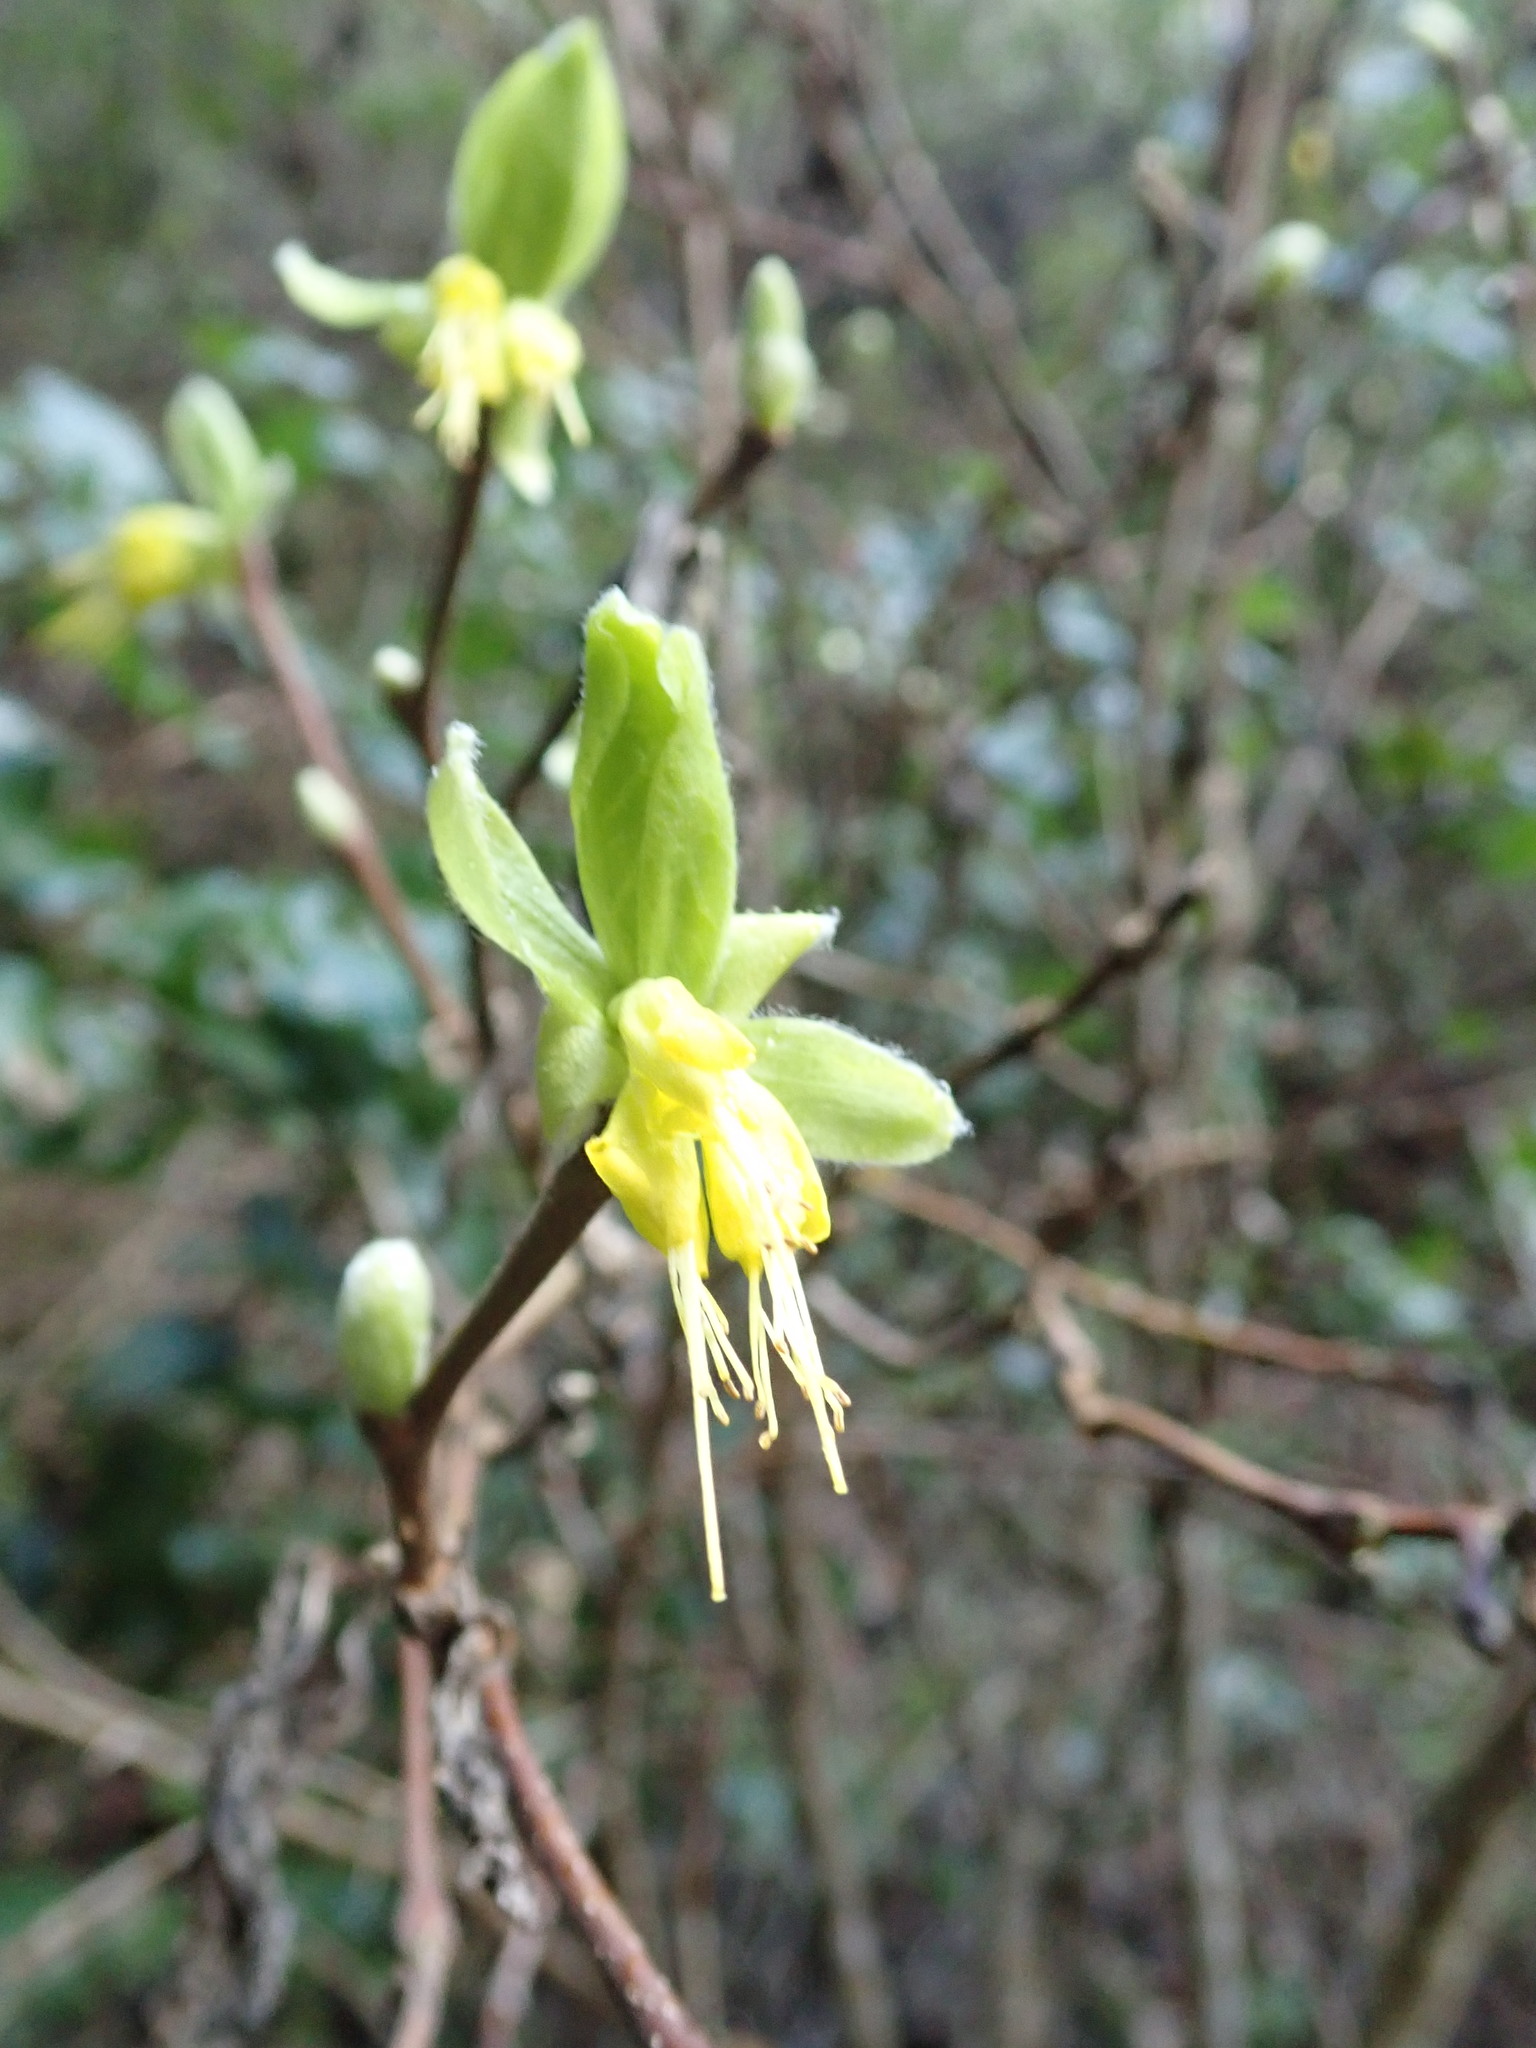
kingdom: Plantae
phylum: Tracheophyta
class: Magnoliopsida
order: Malvales
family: Thymelaeaceae
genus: Dirca
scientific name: Dirca occidentalis
